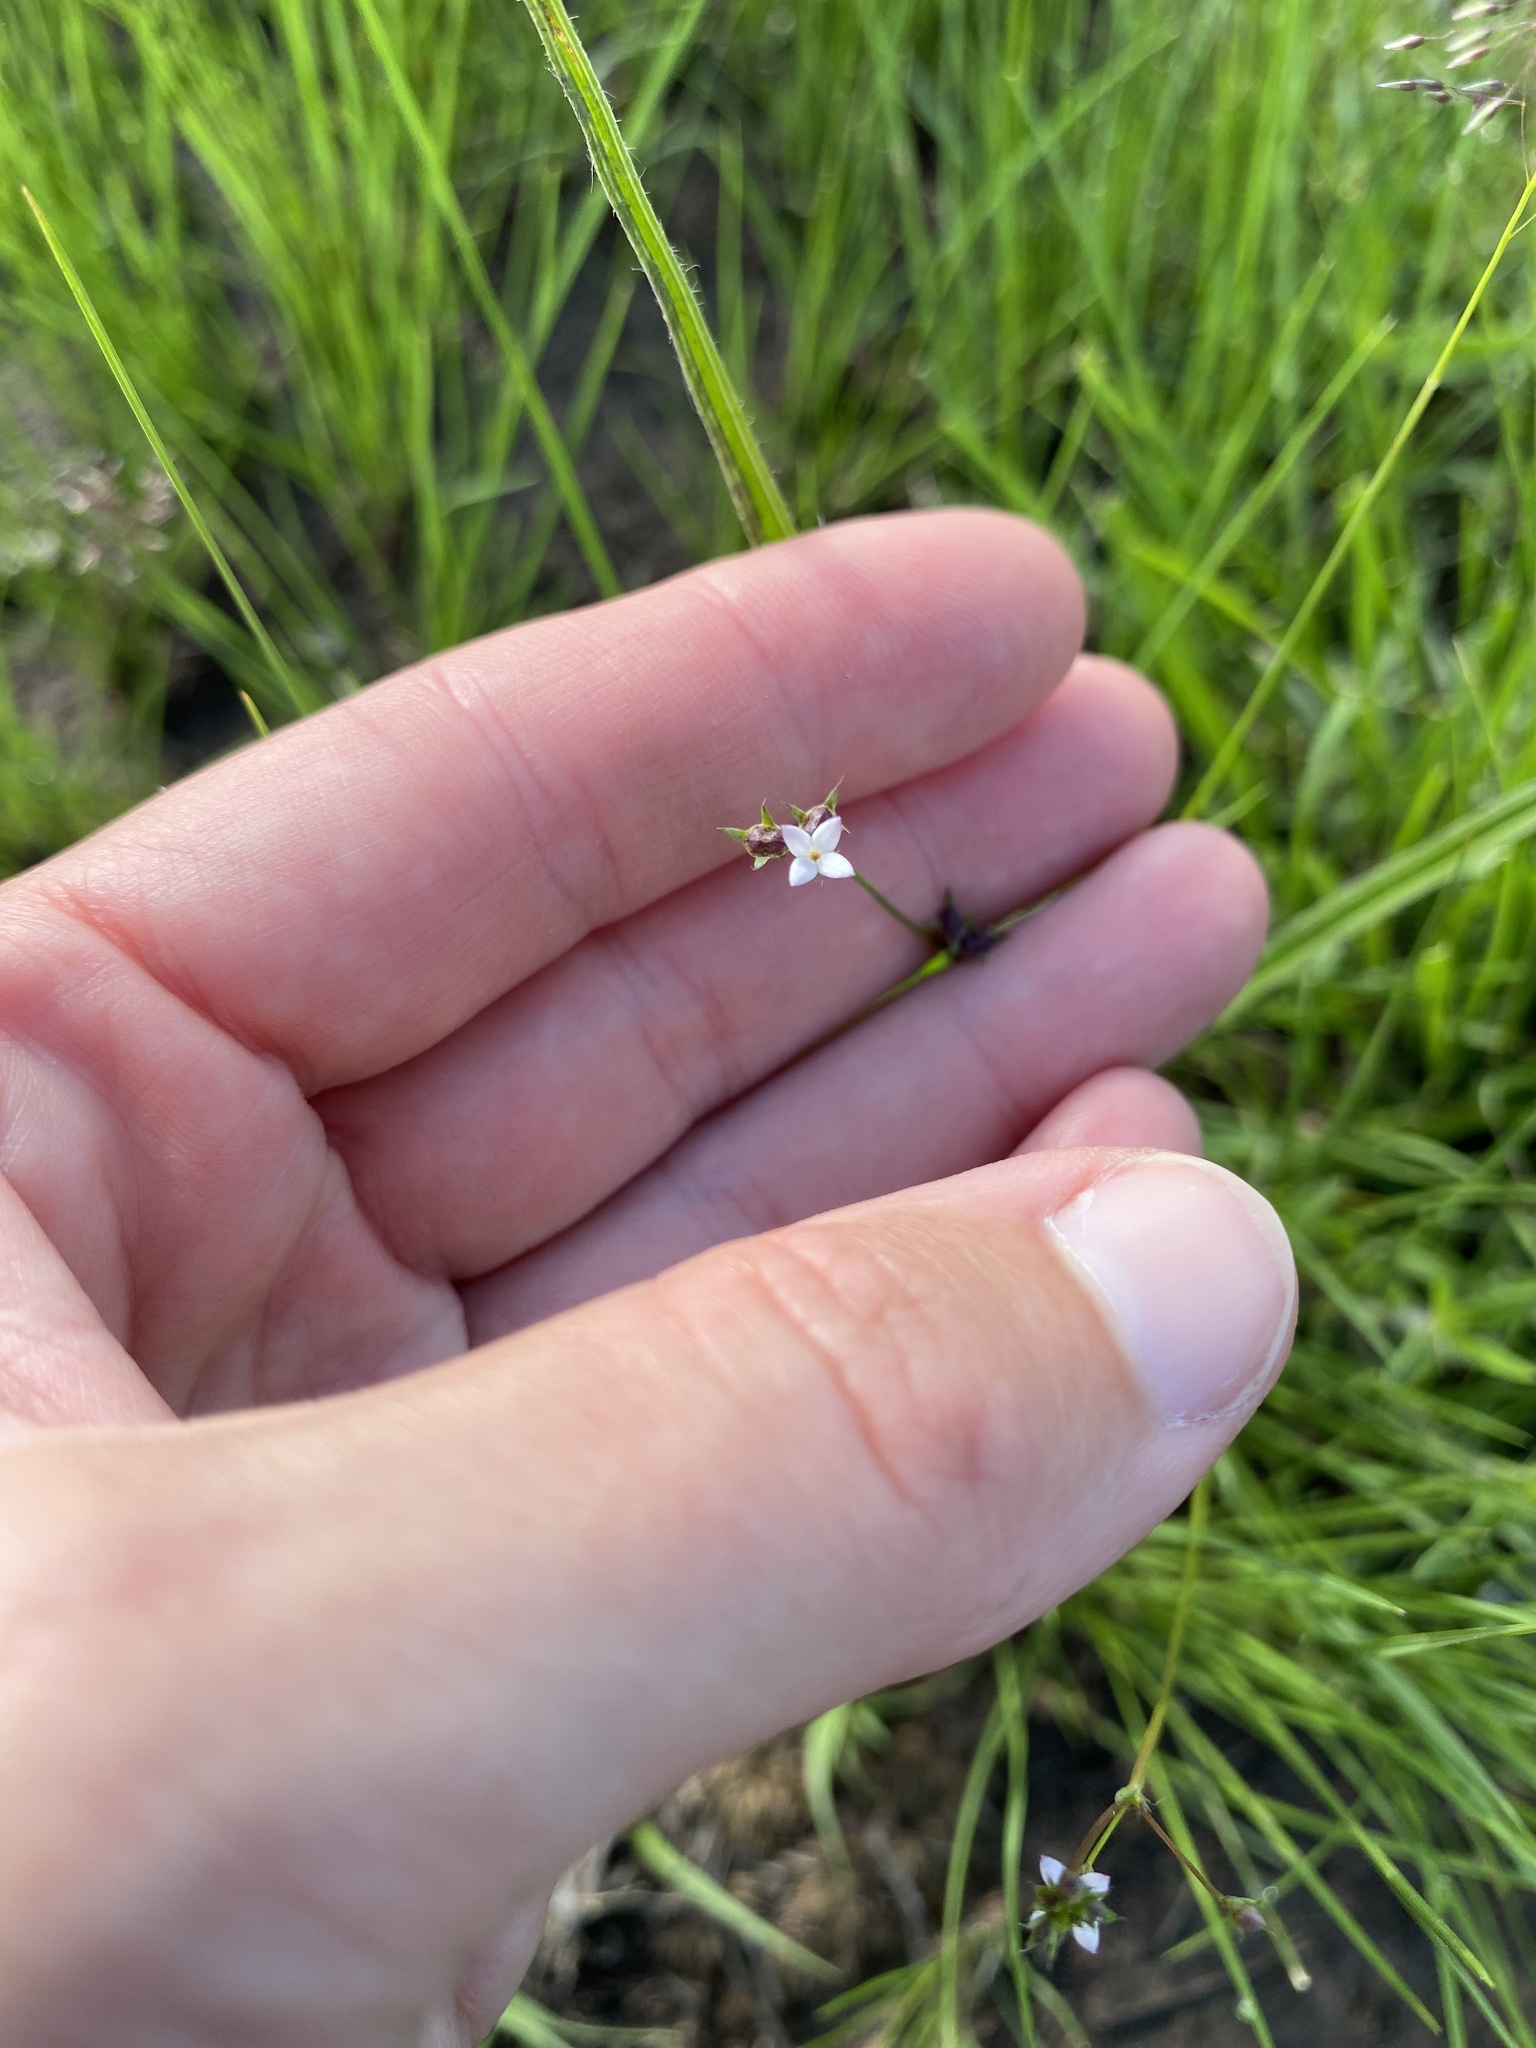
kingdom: Plantae
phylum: Tracheophyta
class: Magnoliopsida
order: Gentianales
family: Rubiaceae
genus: Oldenlandia
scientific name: Oldenlandia herbacea
